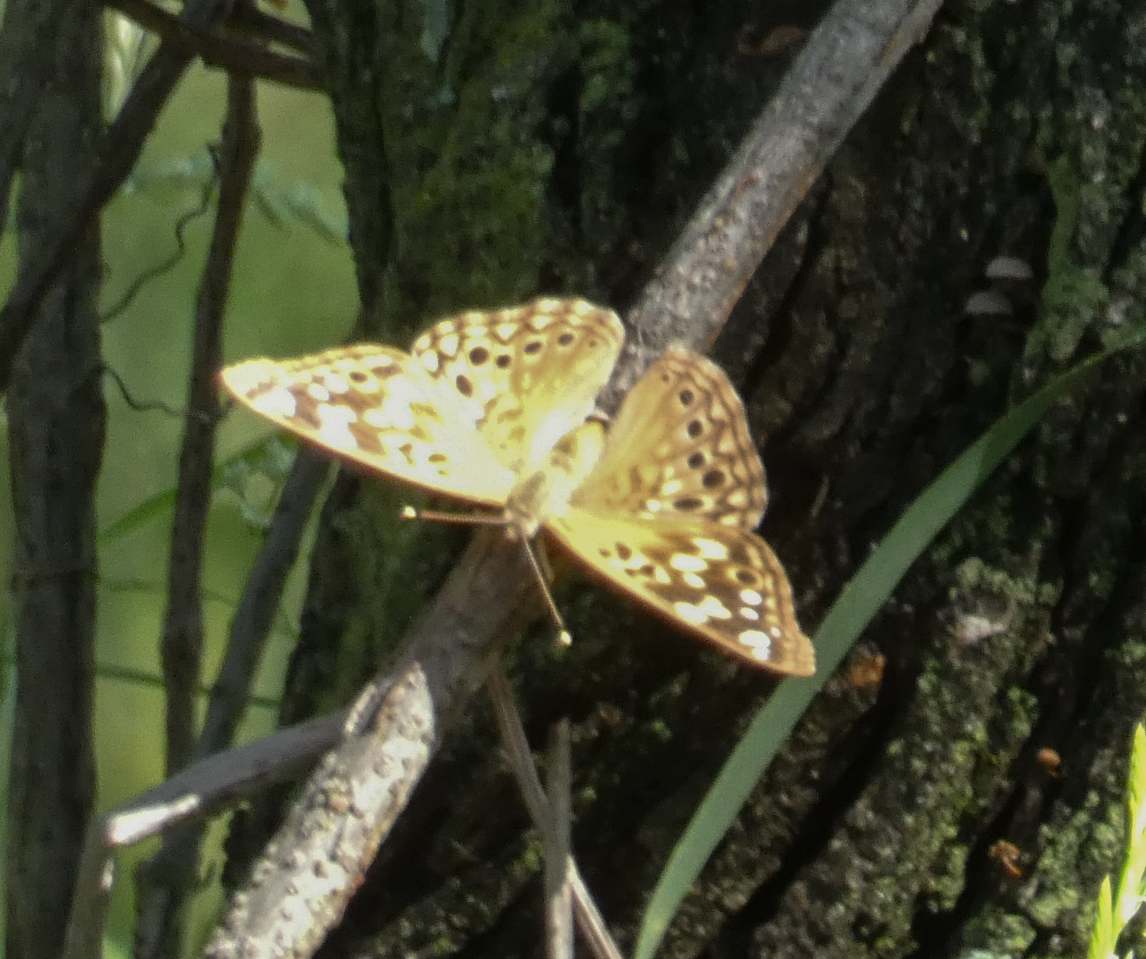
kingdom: Animalia
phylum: Arthropoda
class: Insecta
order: Lepidoptera
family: Nymphalidae
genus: Asterocampa
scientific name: Asterocampa celtis
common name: Hackberry emperor
